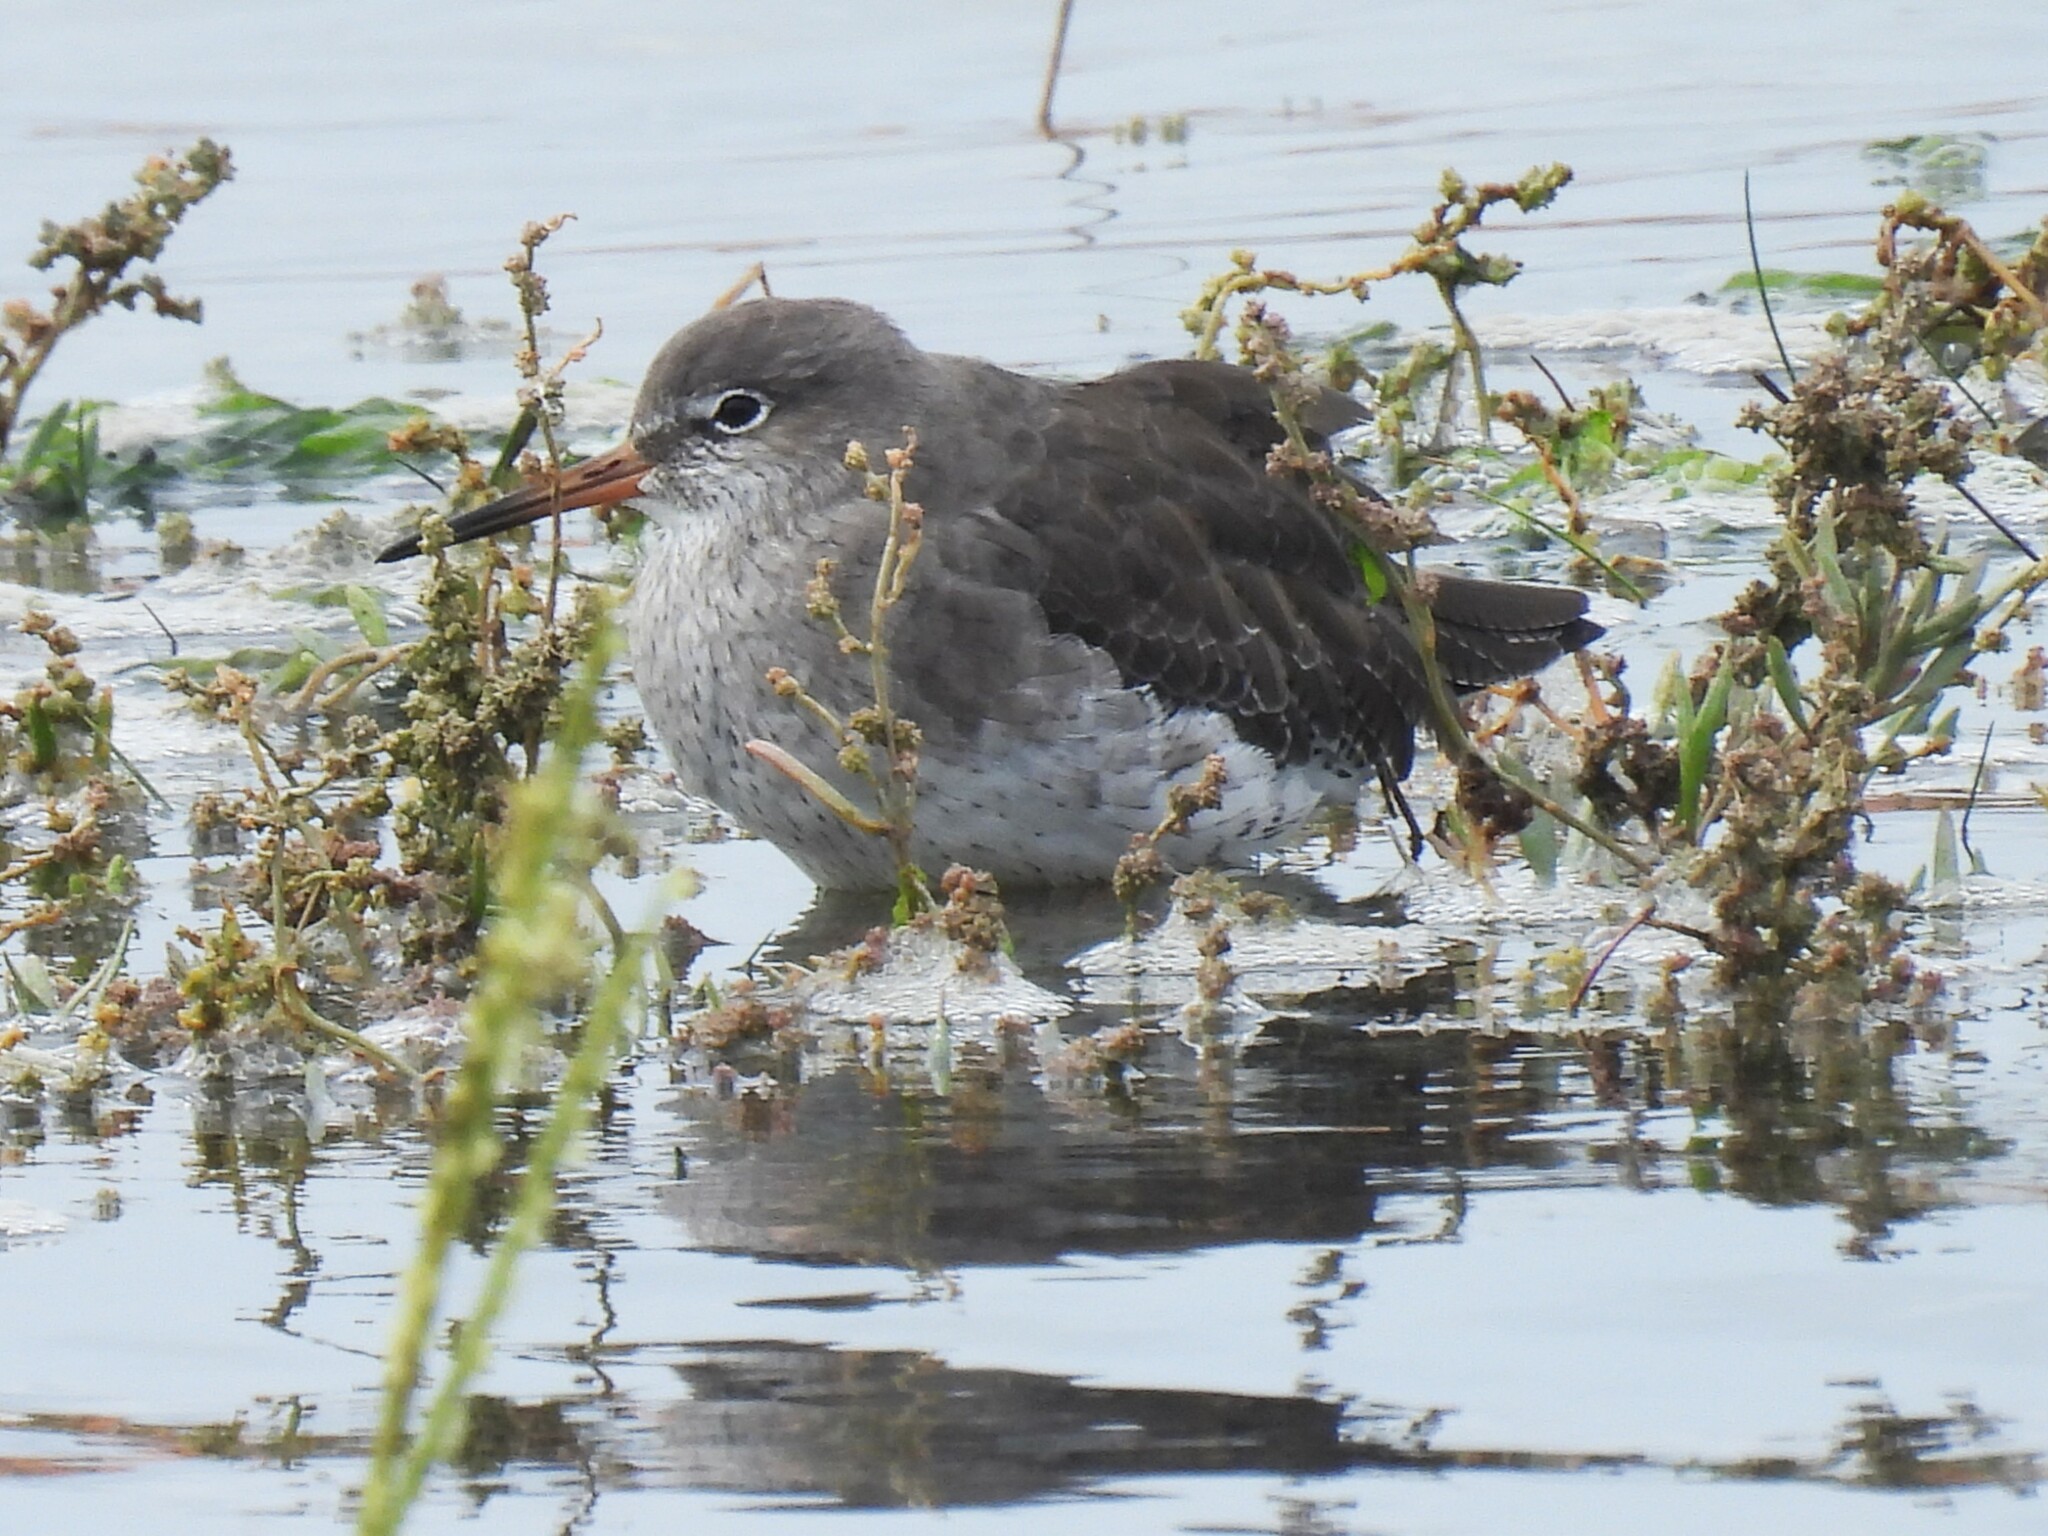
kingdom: Animalia
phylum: Chordata
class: Aves
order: Charadriiformes
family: Scolopacidae
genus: Tringa
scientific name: Tringa totanus
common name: Common redshank
